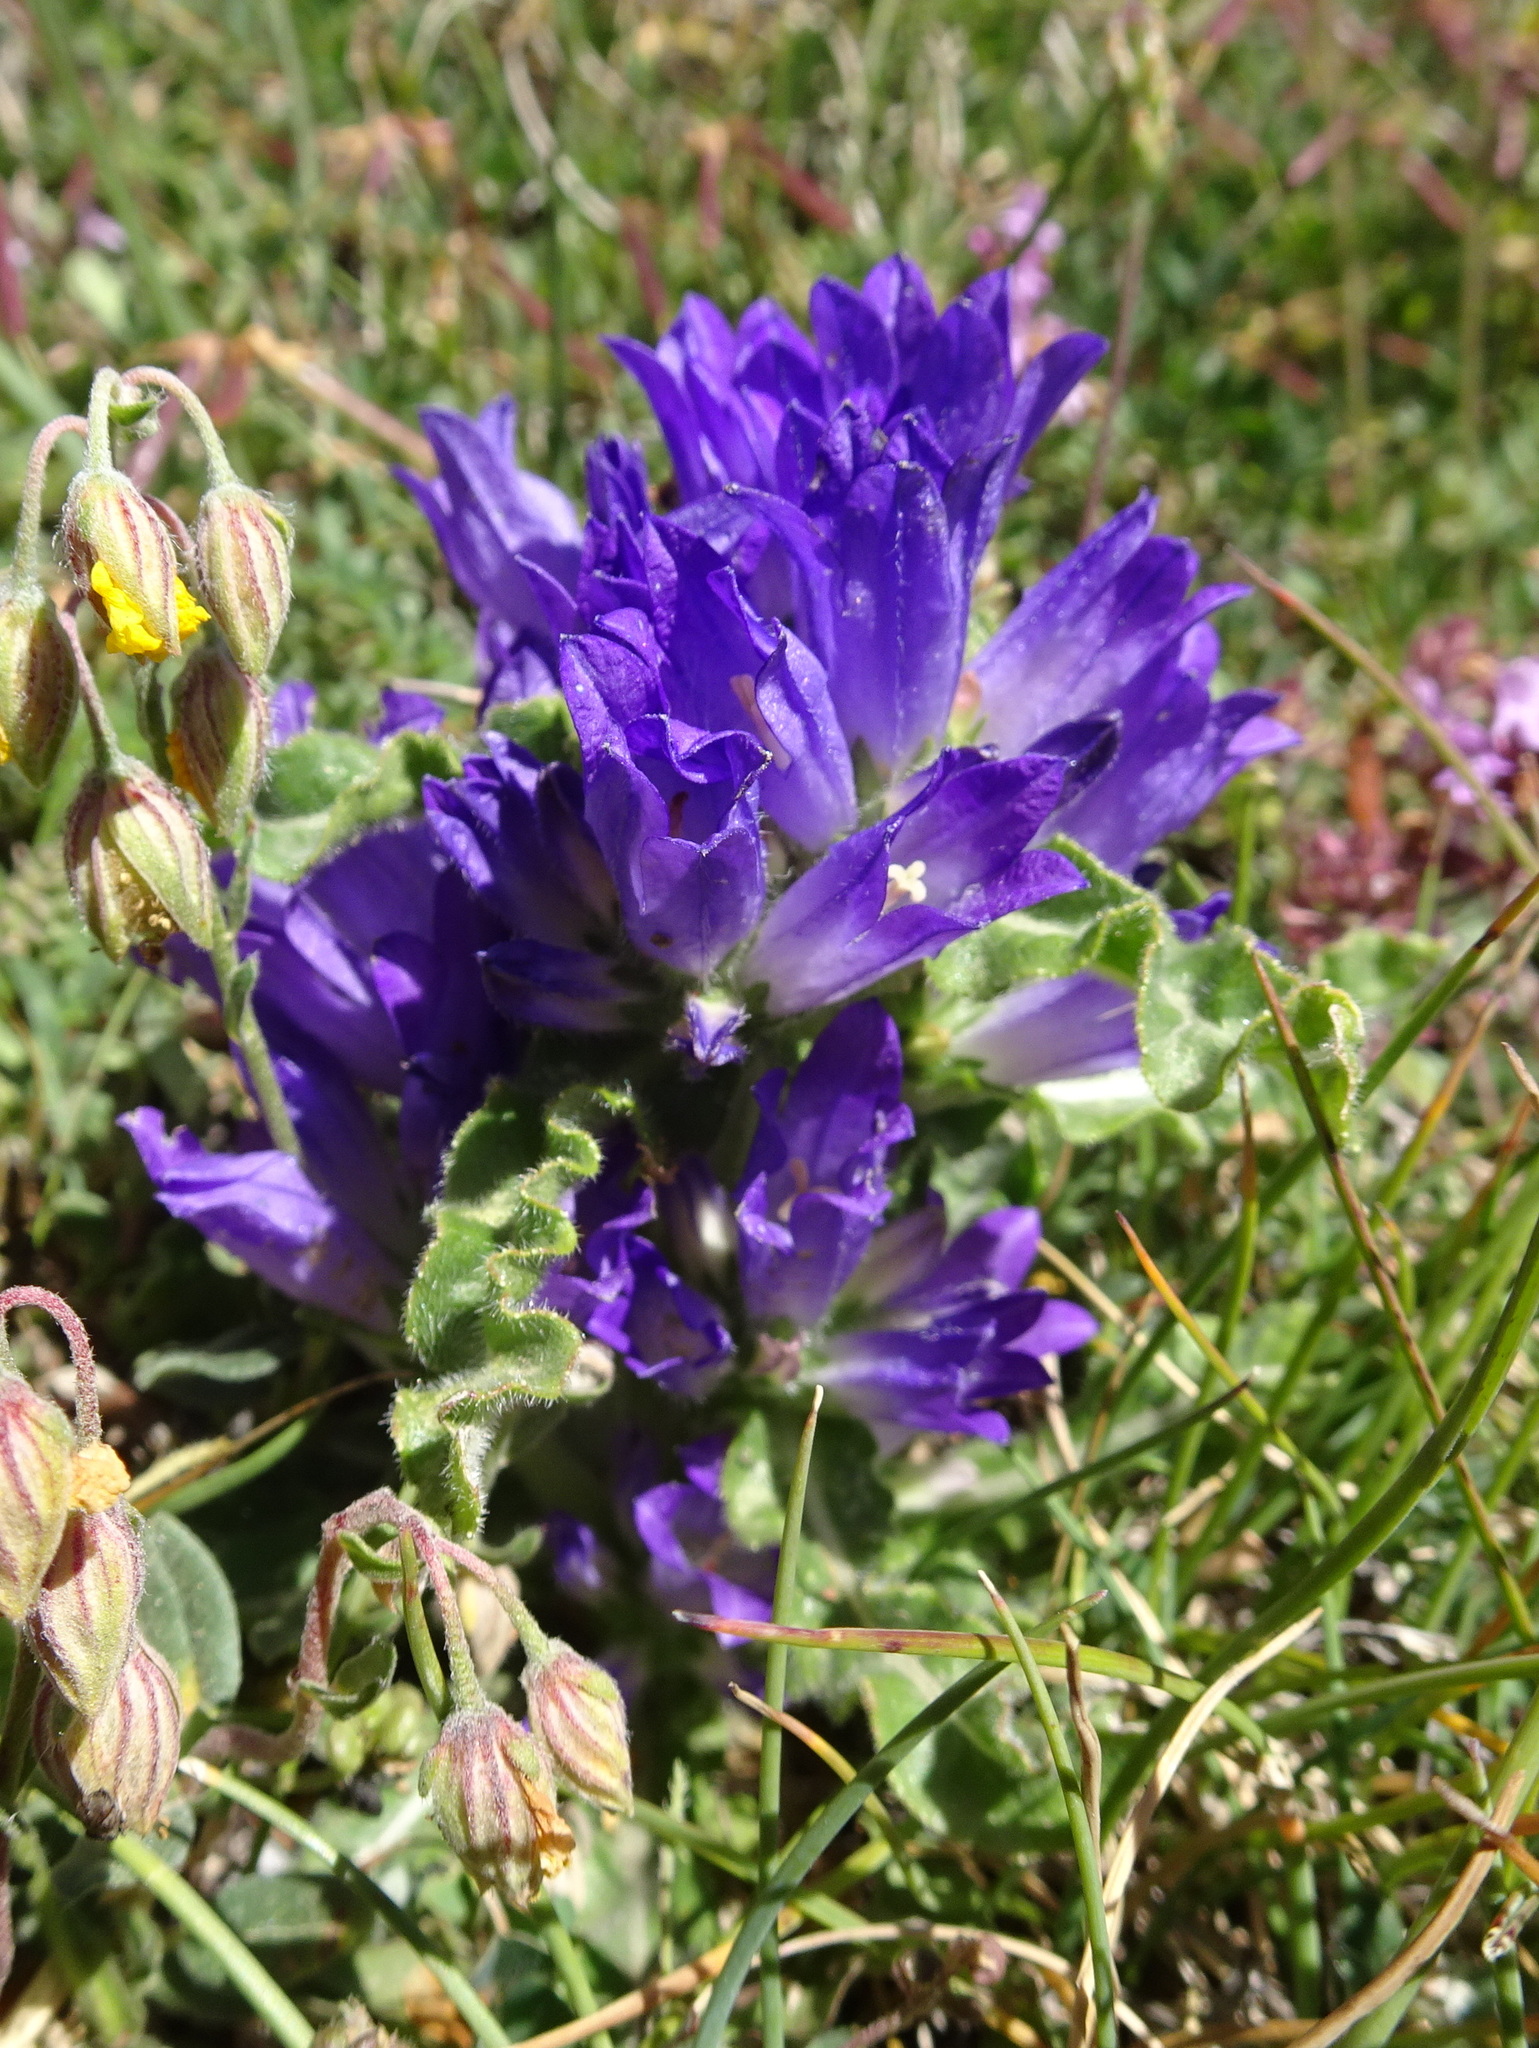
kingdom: Plantae
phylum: Tracheophyta
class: Magnoliopsida
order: Asterales
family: Campanulaceae
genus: Campanula
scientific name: Campanula glomerata
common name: Clustered bellflower
